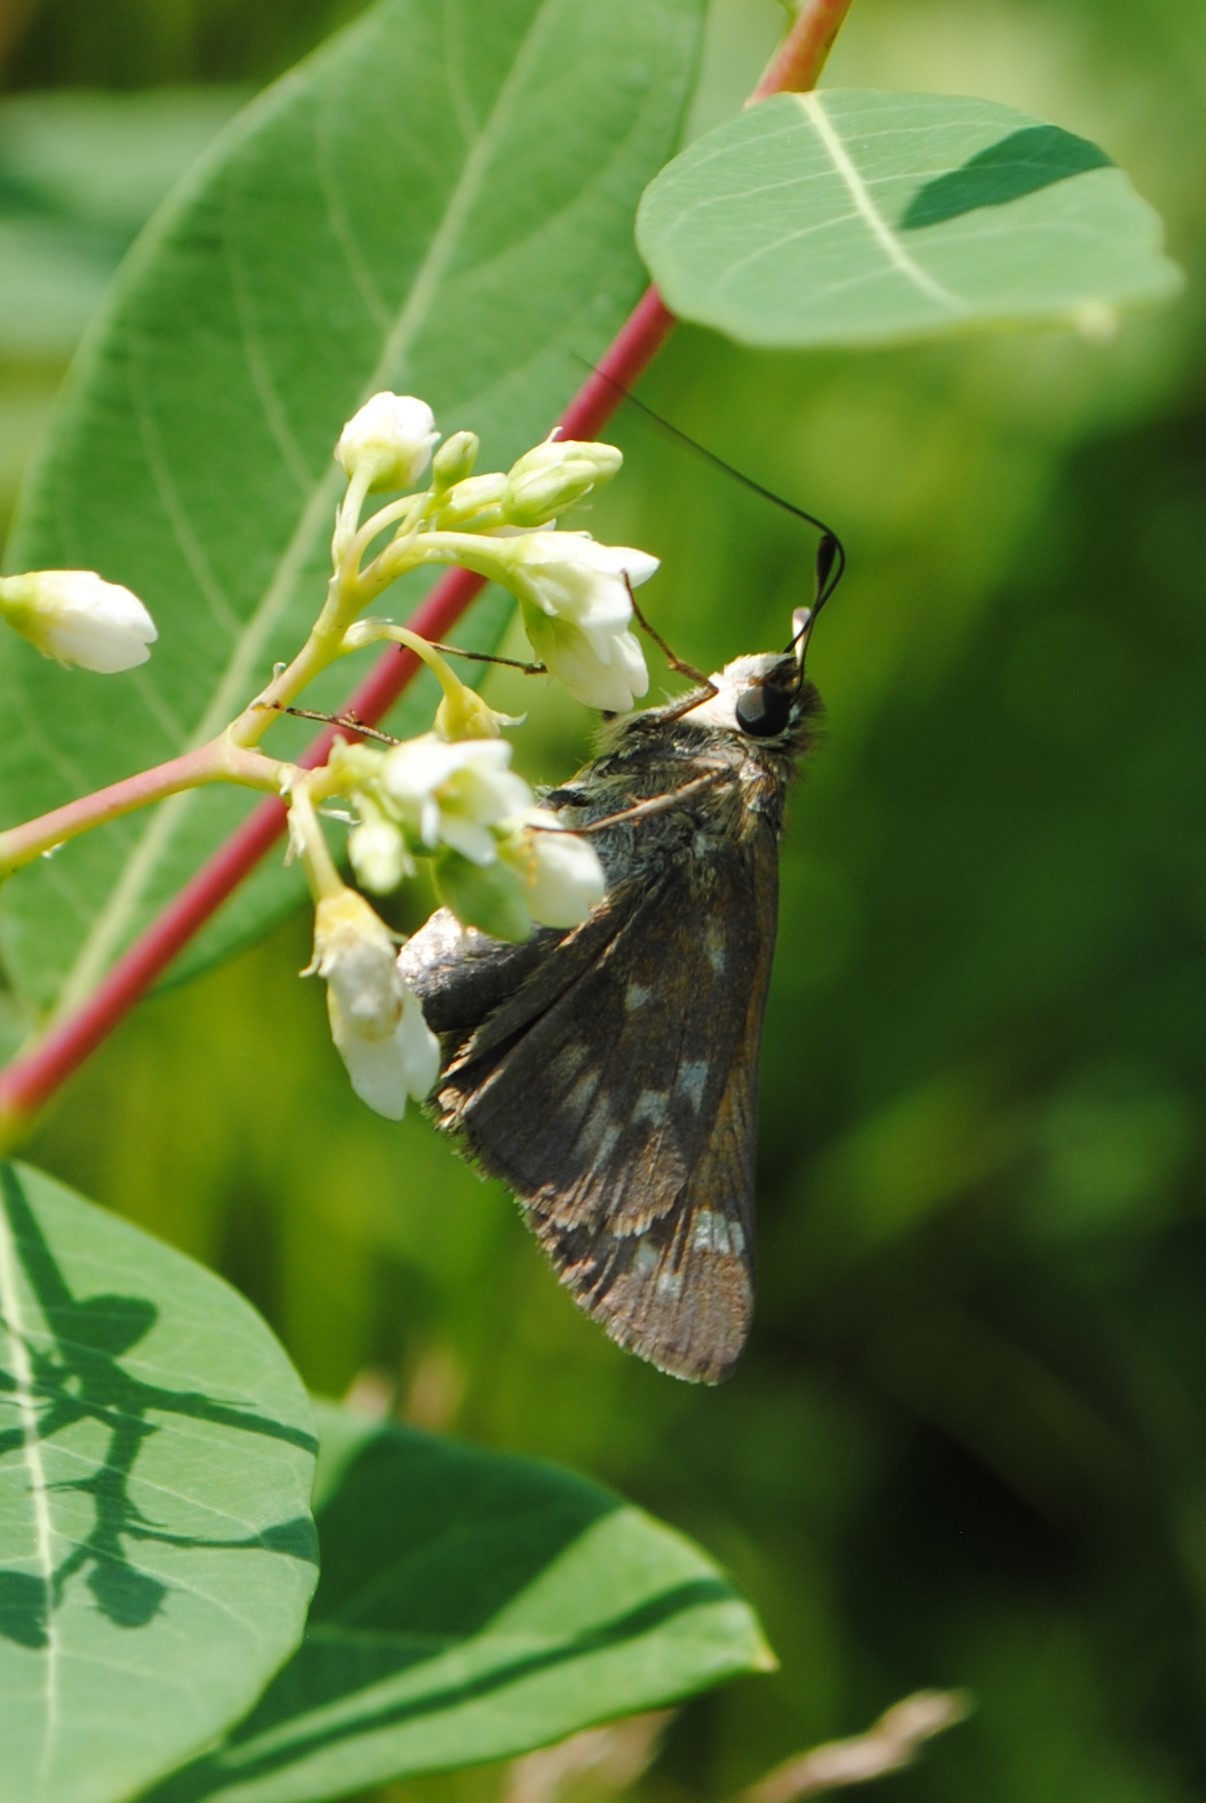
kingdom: Animalia
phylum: Arthropoda
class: Insecta
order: Lepidoptera
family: Hesperiidae
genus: Atalopedes
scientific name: Atalopedes
